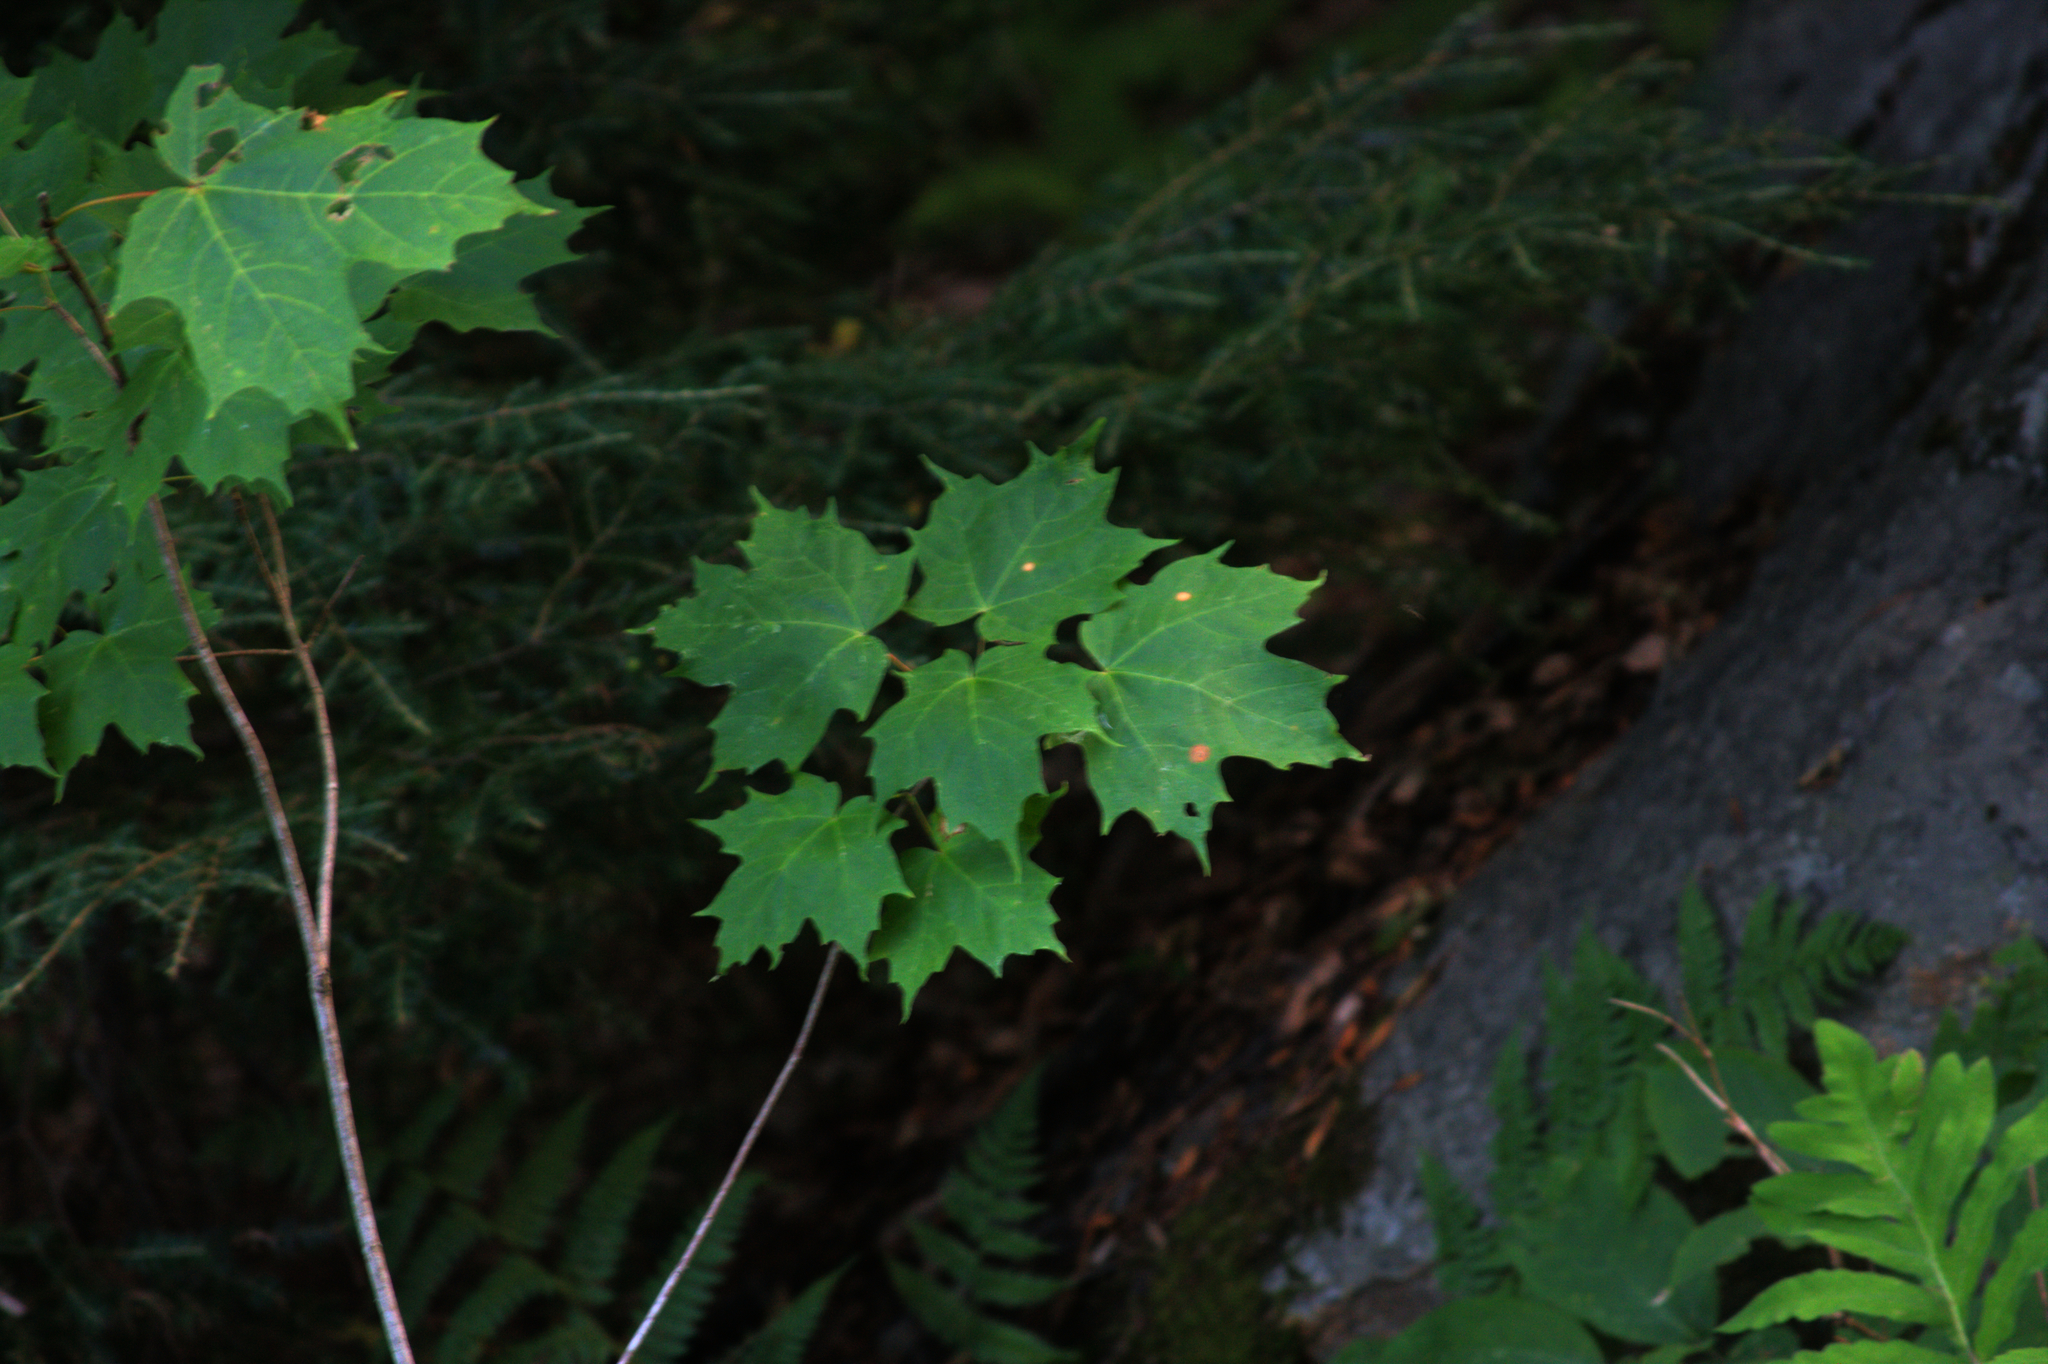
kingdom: Plantae
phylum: Tracheophyta
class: Magnoliopsida
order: Sapindales
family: Sapindaceae
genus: Acer
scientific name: Acer saccharum
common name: Sugar maple
